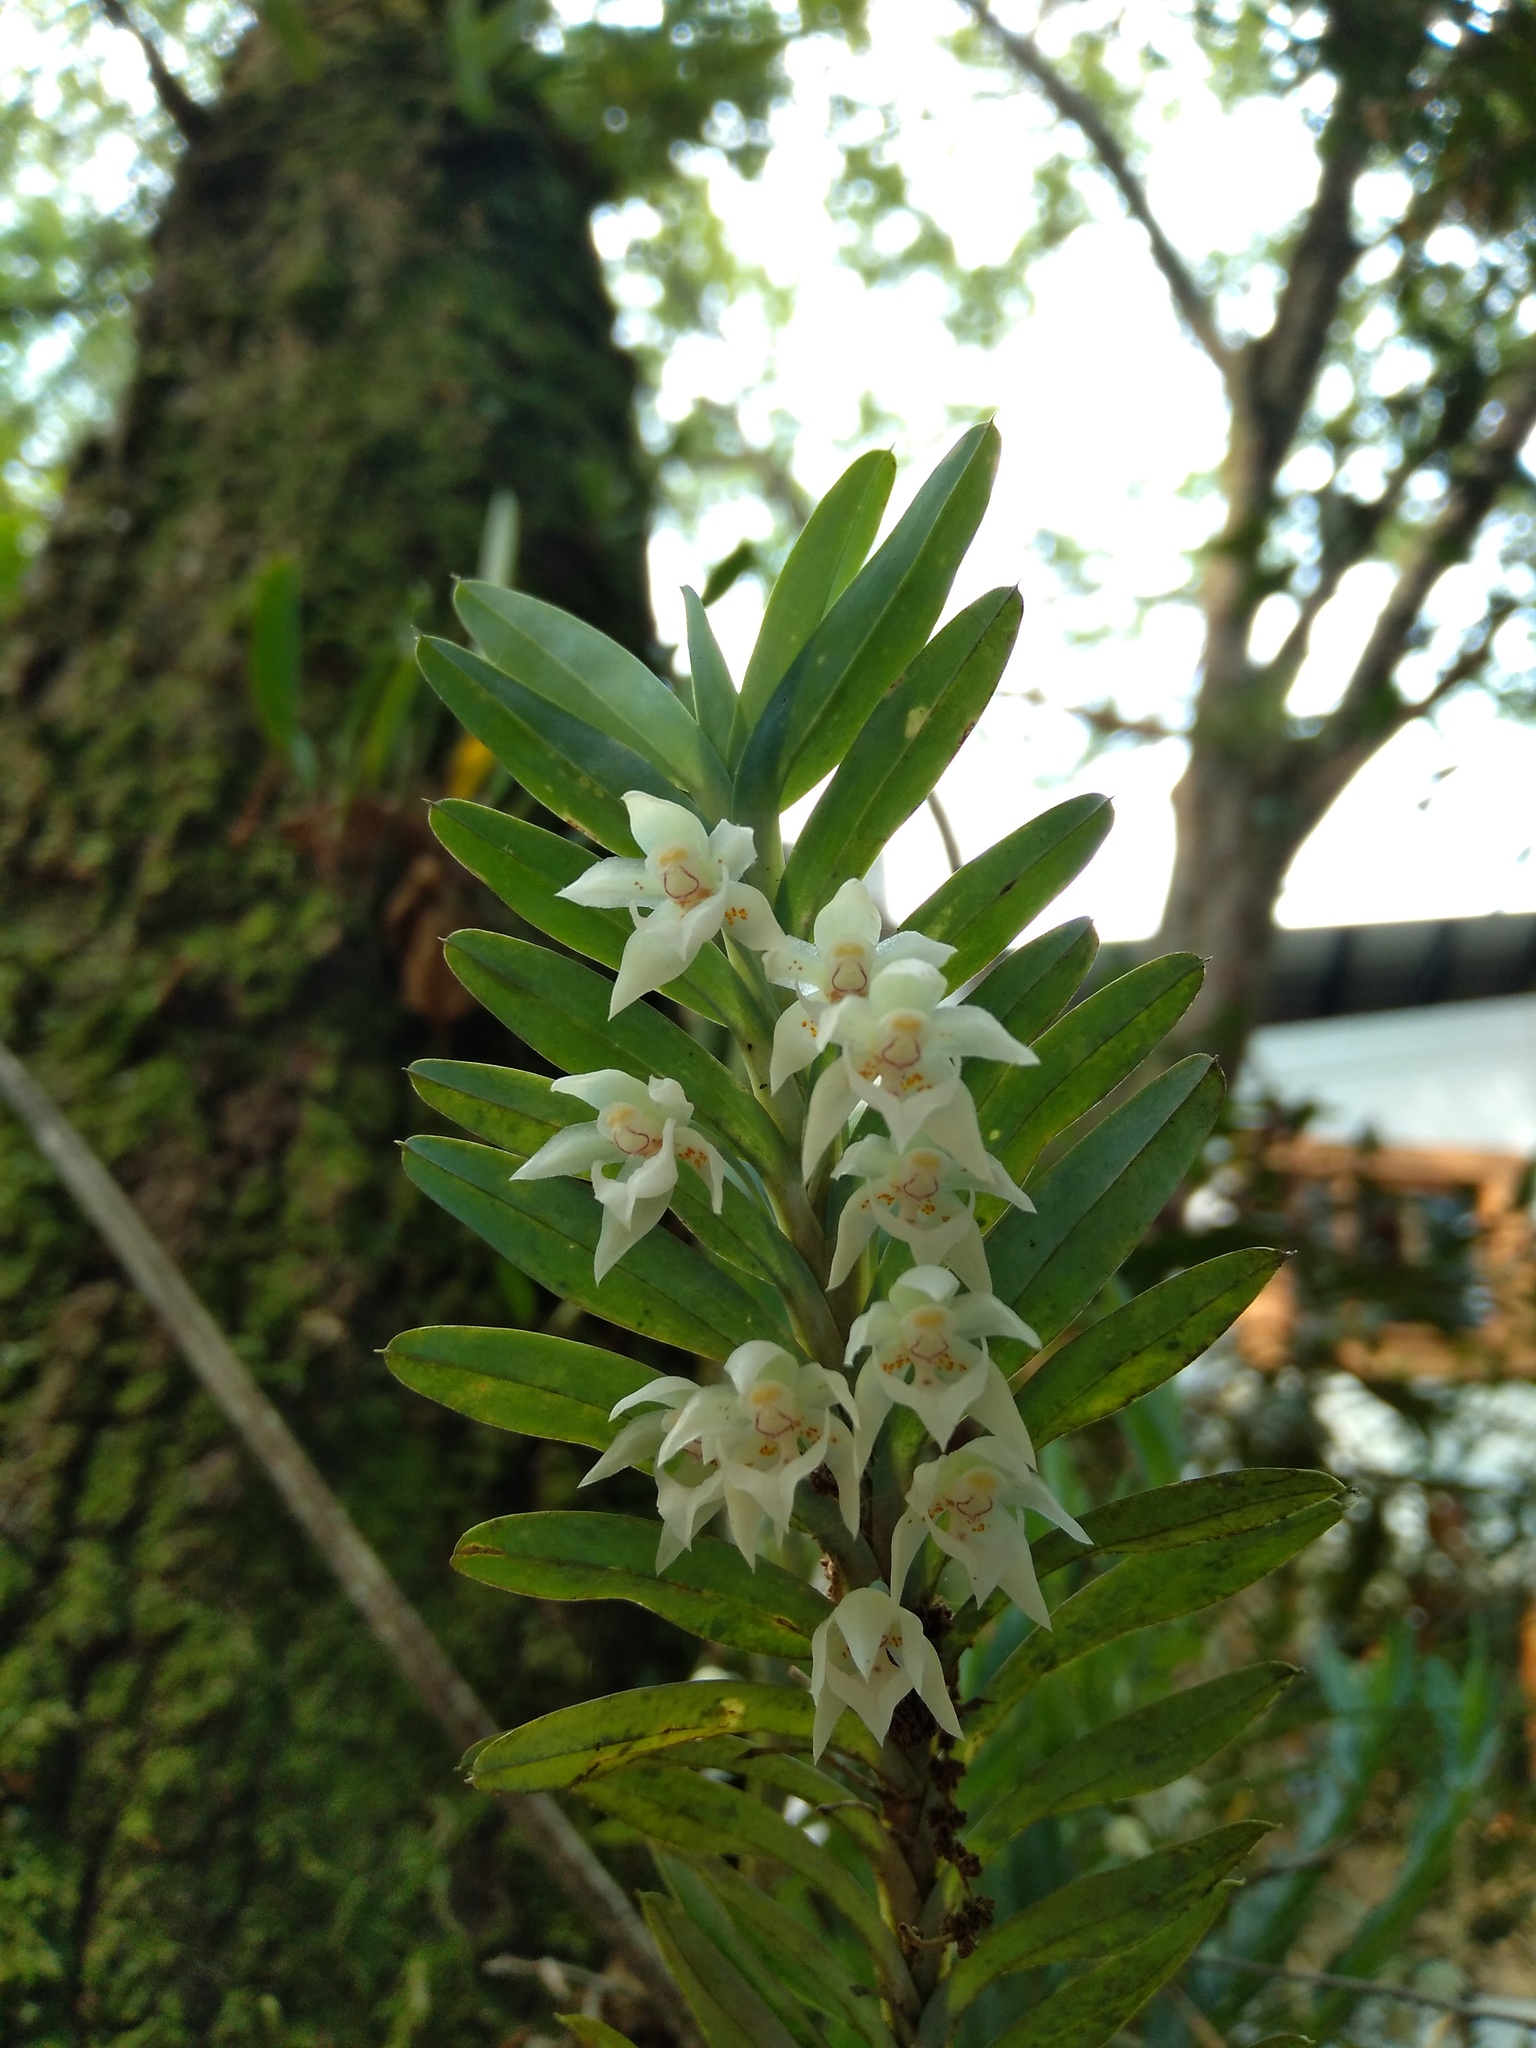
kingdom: Plantae
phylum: Tracheophyta
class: Liliopsida
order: Asparagales
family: Orchidaceae
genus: Dichaea
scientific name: Dichaea glauca
